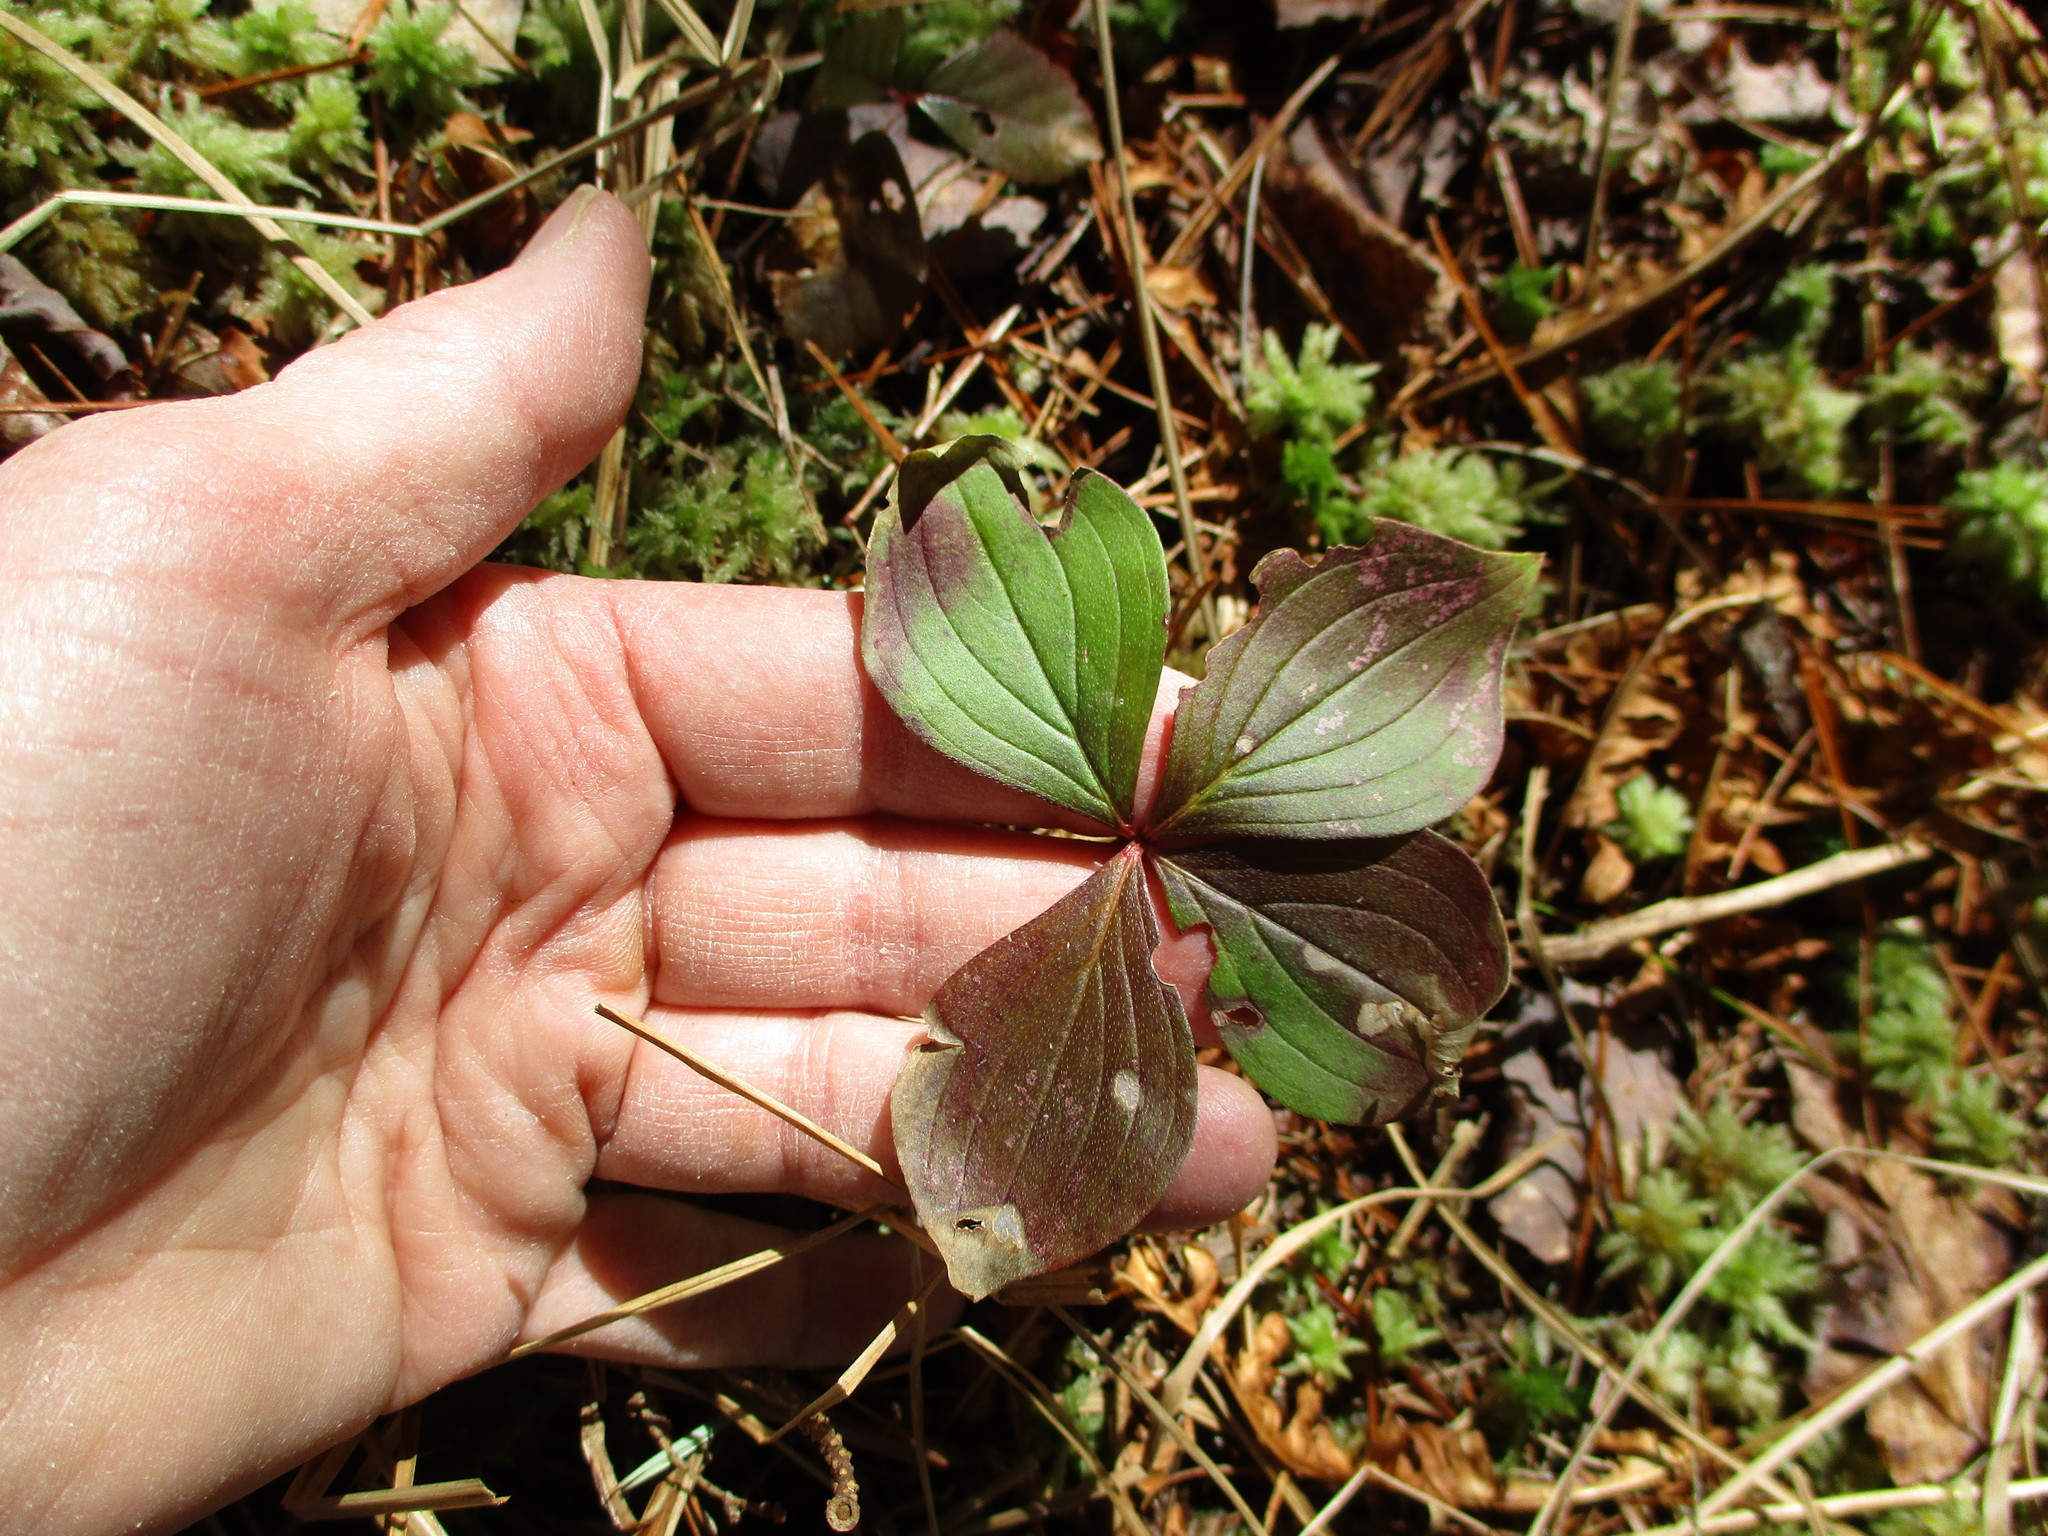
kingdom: Plantae
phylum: Tracheophyta
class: Magnoliopsida
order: Cornales
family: Cornaceae
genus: Cornus
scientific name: Cornus canadensis
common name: Creeping dogwood
